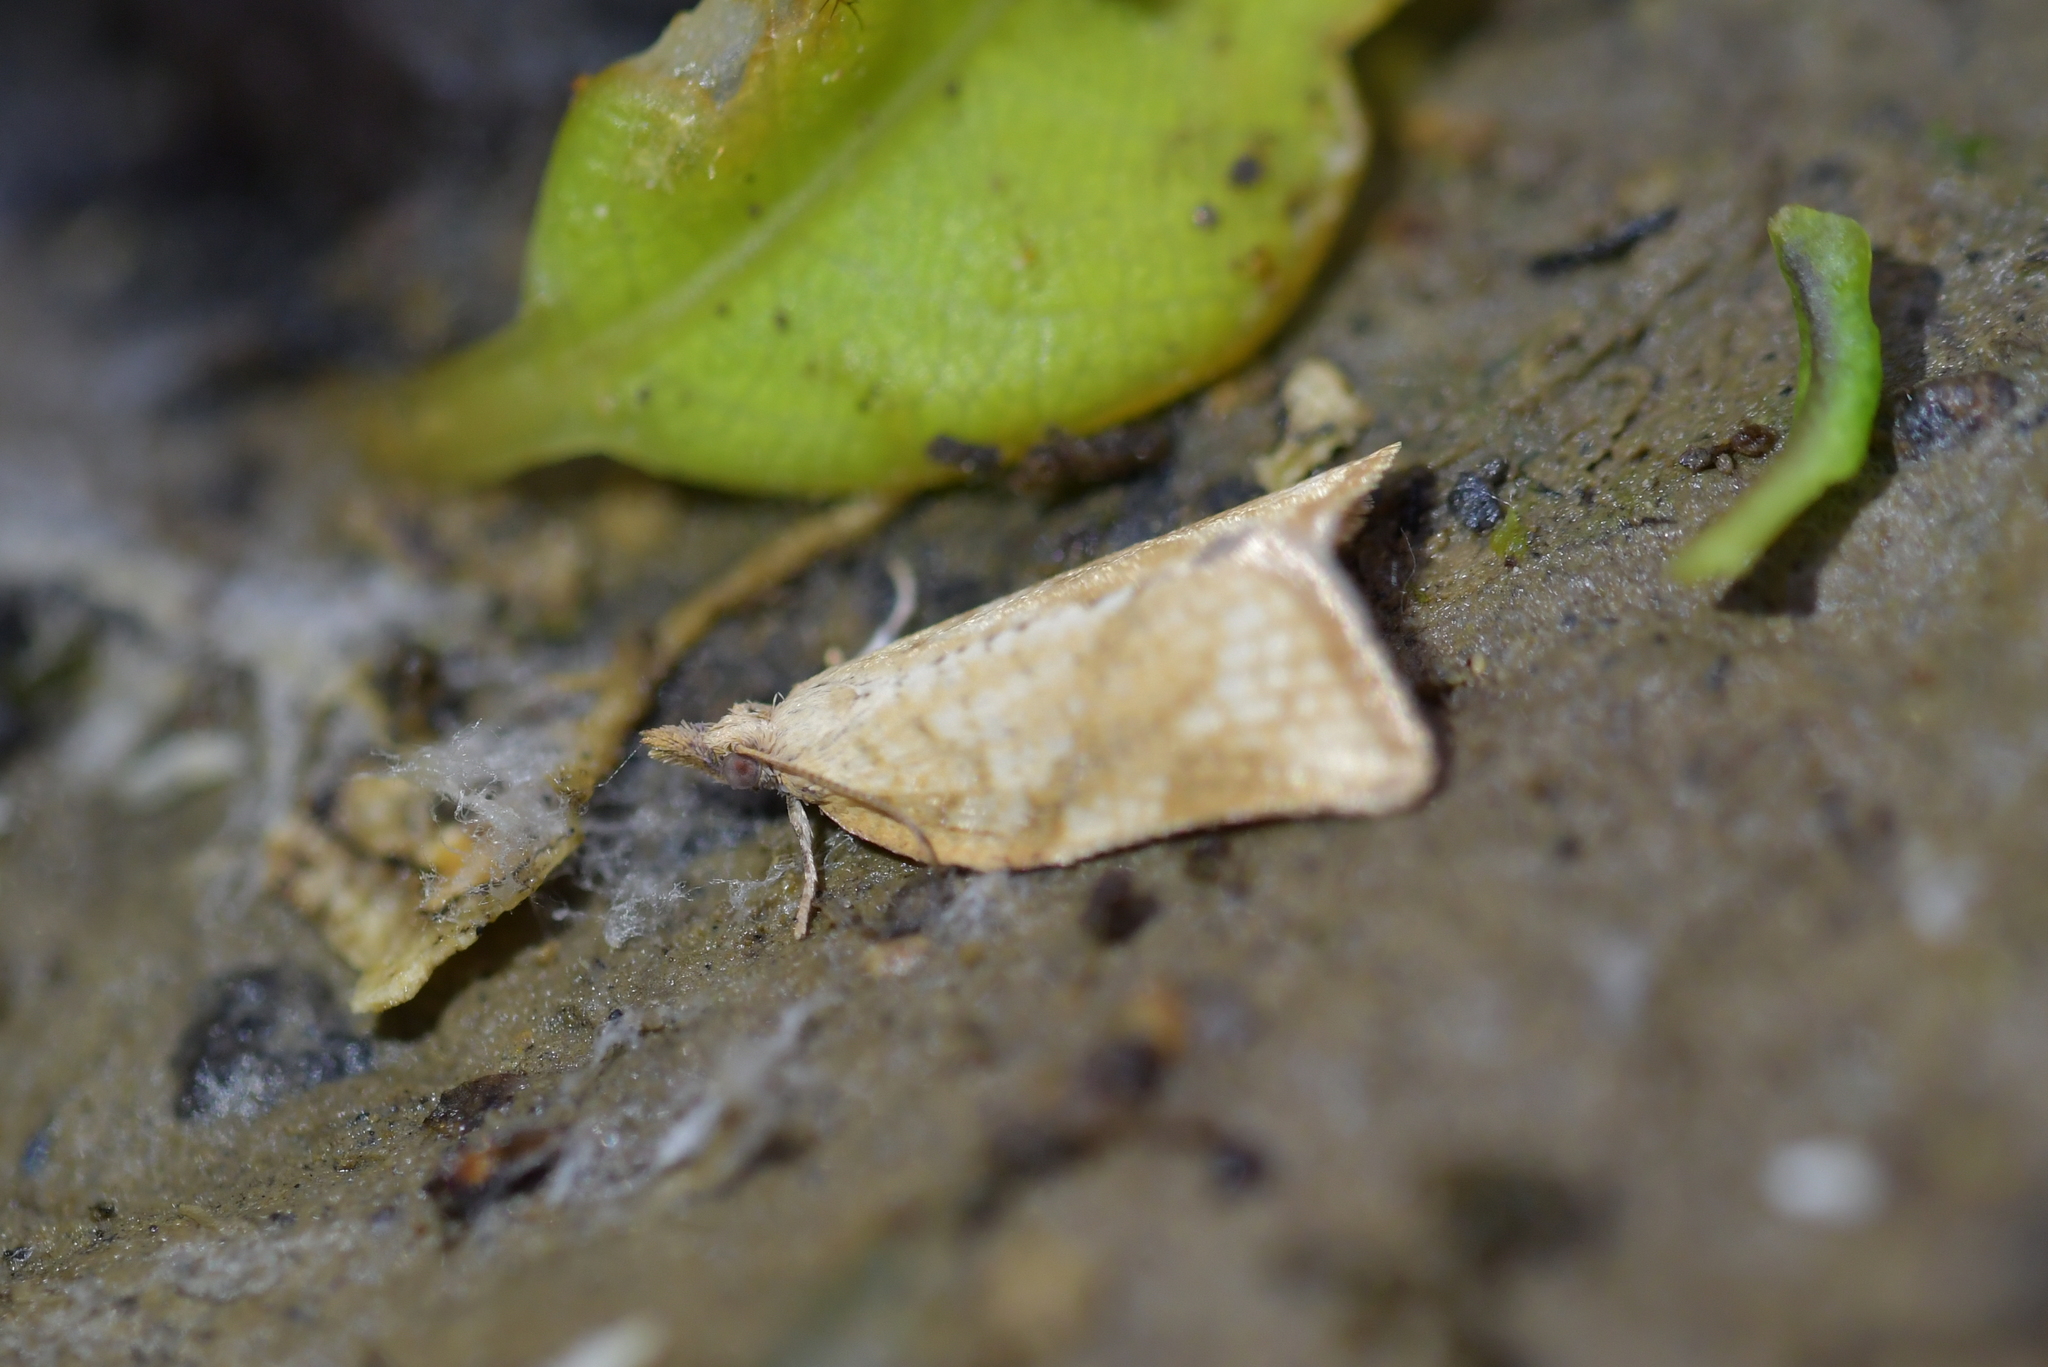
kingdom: Animalia
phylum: Arthropoda
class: Insecta
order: Lepidoptera
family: Tortricidae
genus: Catamacta
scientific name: Catamacta gavisana
